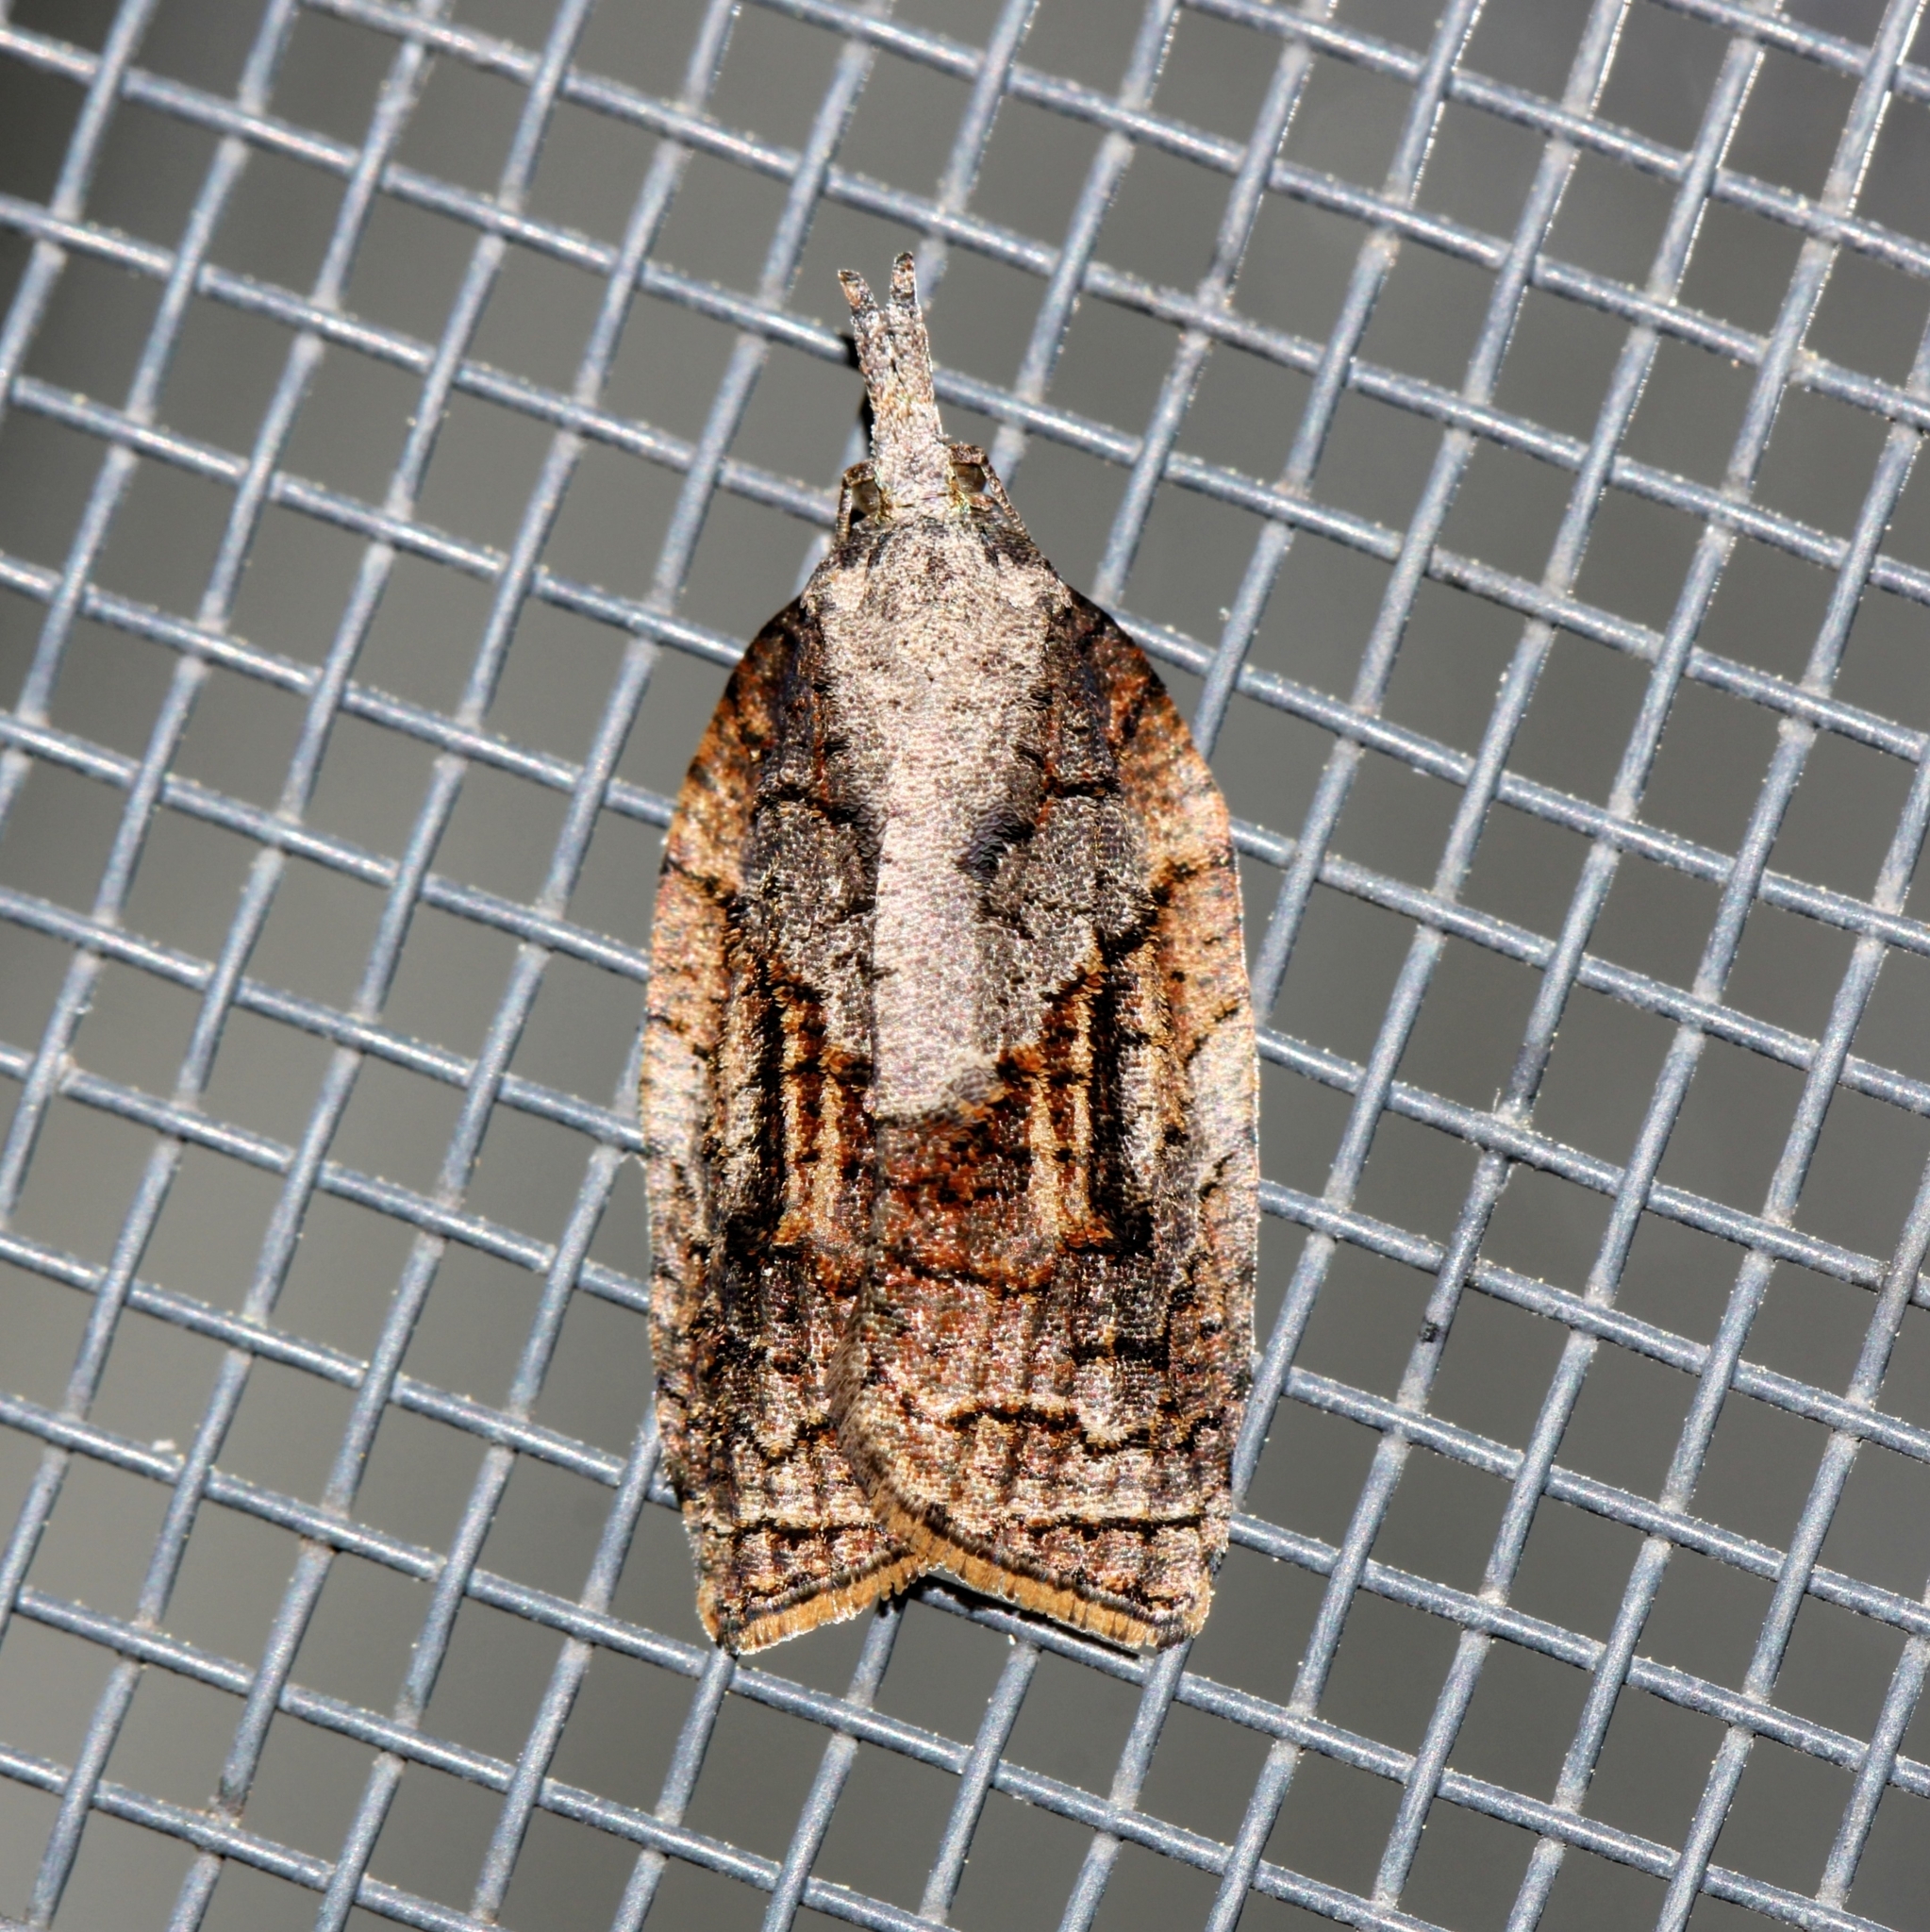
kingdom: Animalia
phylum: Arthropoda
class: Insecta
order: Lepidoptera
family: Tortricidae
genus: Platynota
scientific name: Platynota idaeusalis
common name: Tufted apple bud moth
